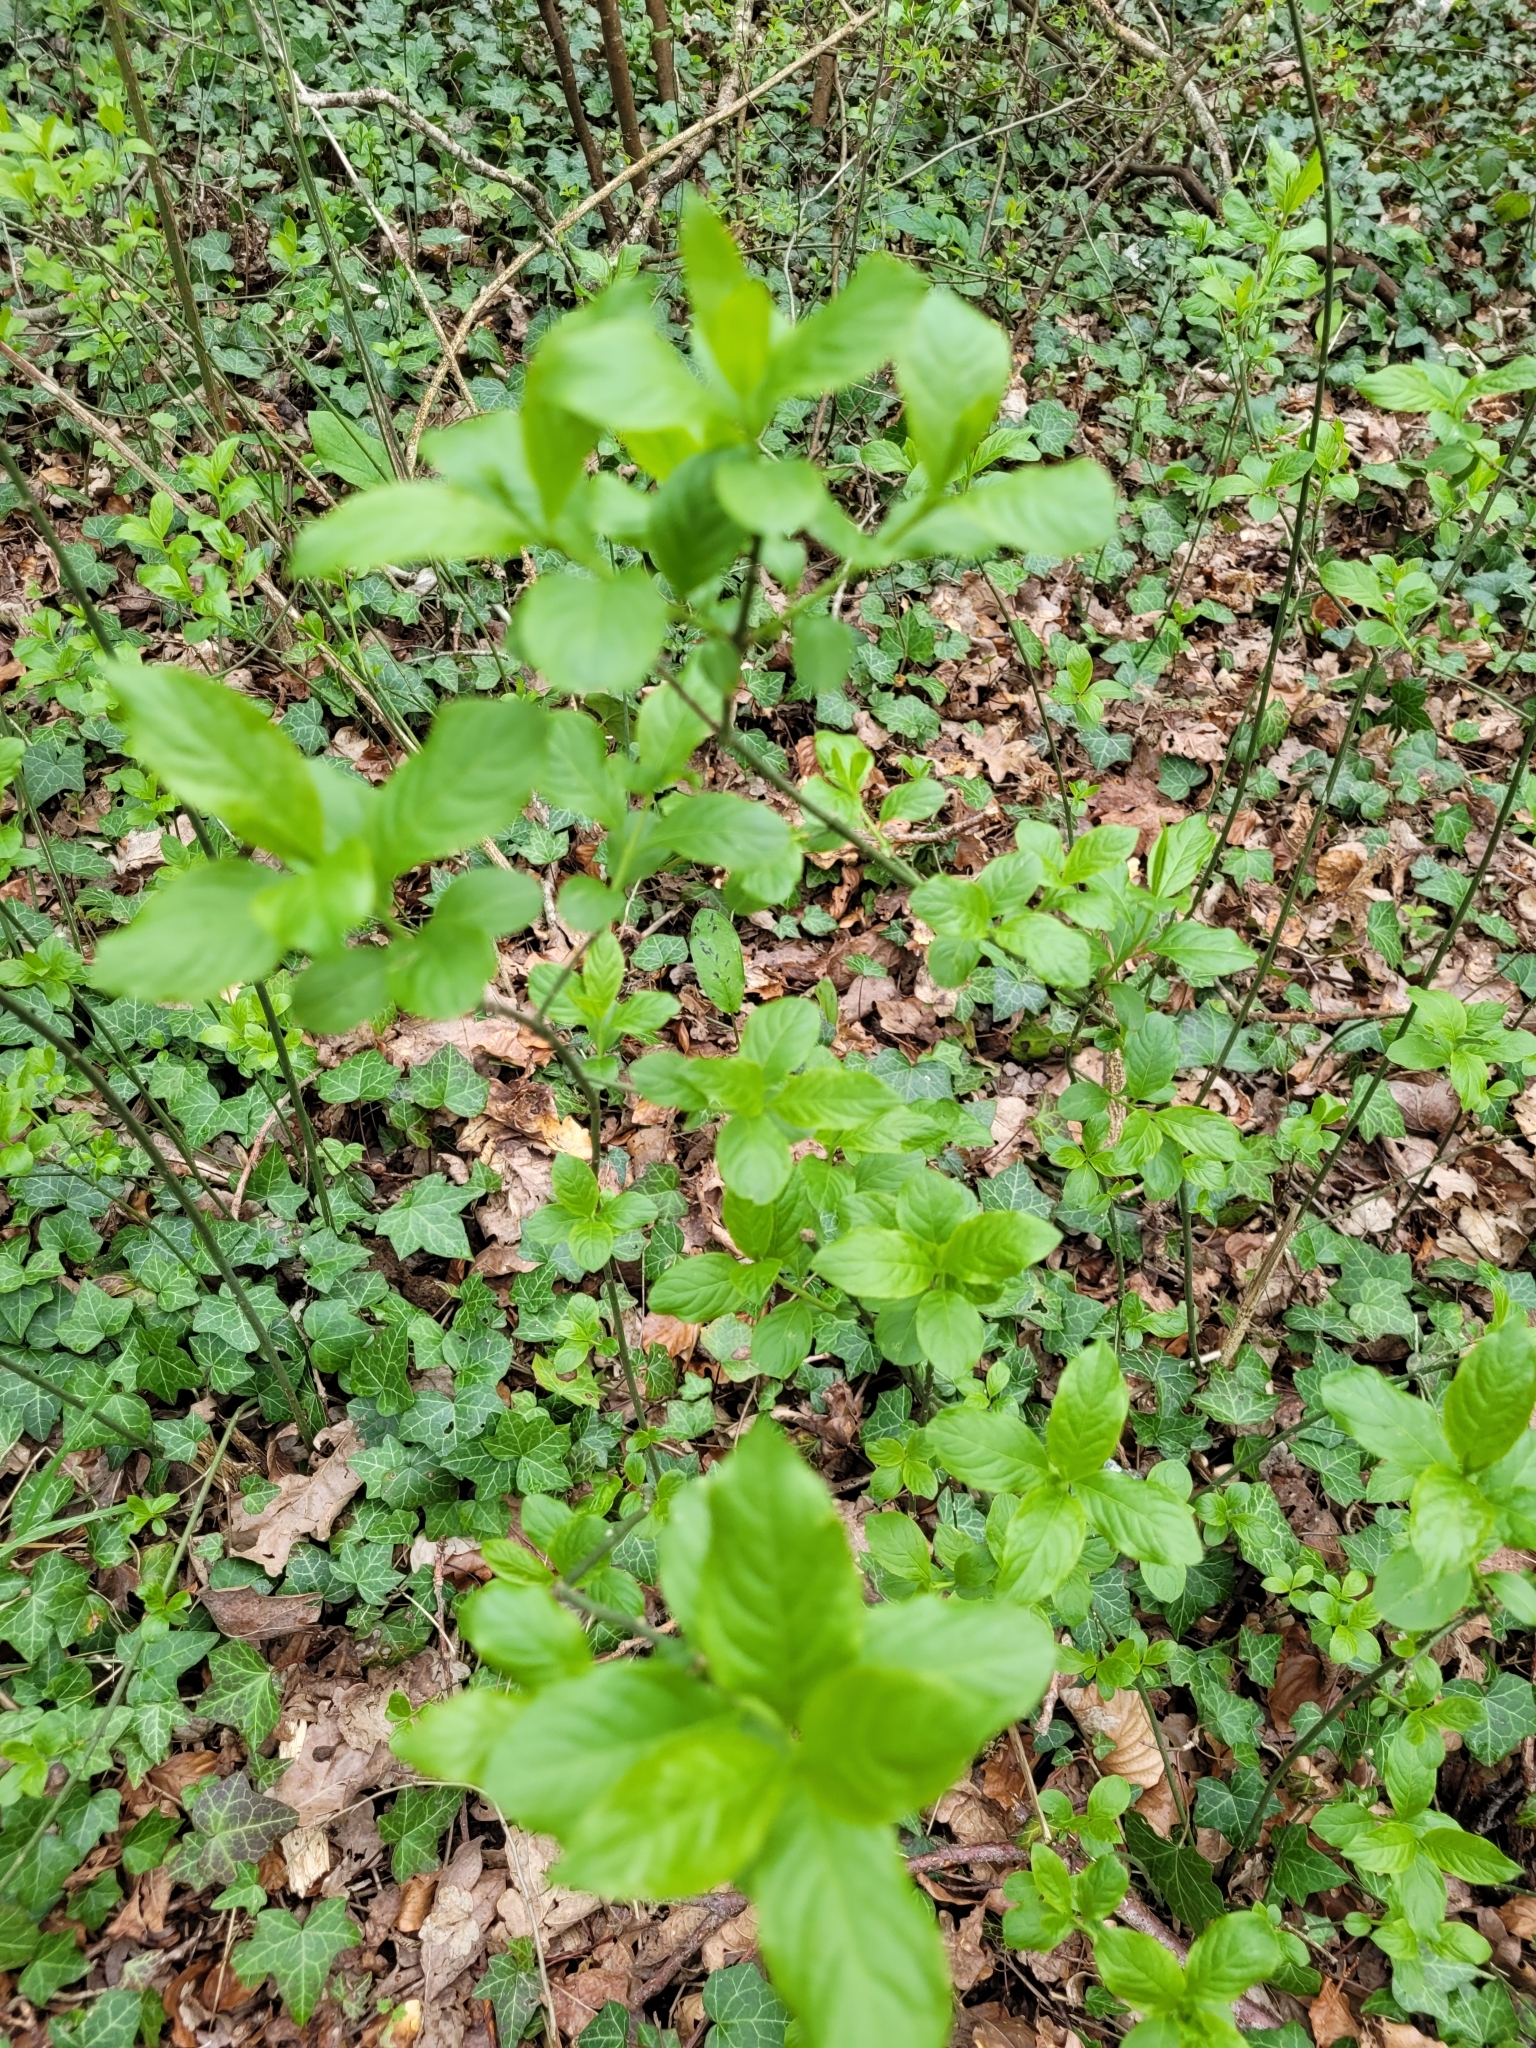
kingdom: Plantae
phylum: Tracheophyta
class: Magnoliopsida
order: Celastrales
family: Celastraceae
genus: Euonymus
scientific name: Euonymus europaeus
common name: Spindle
